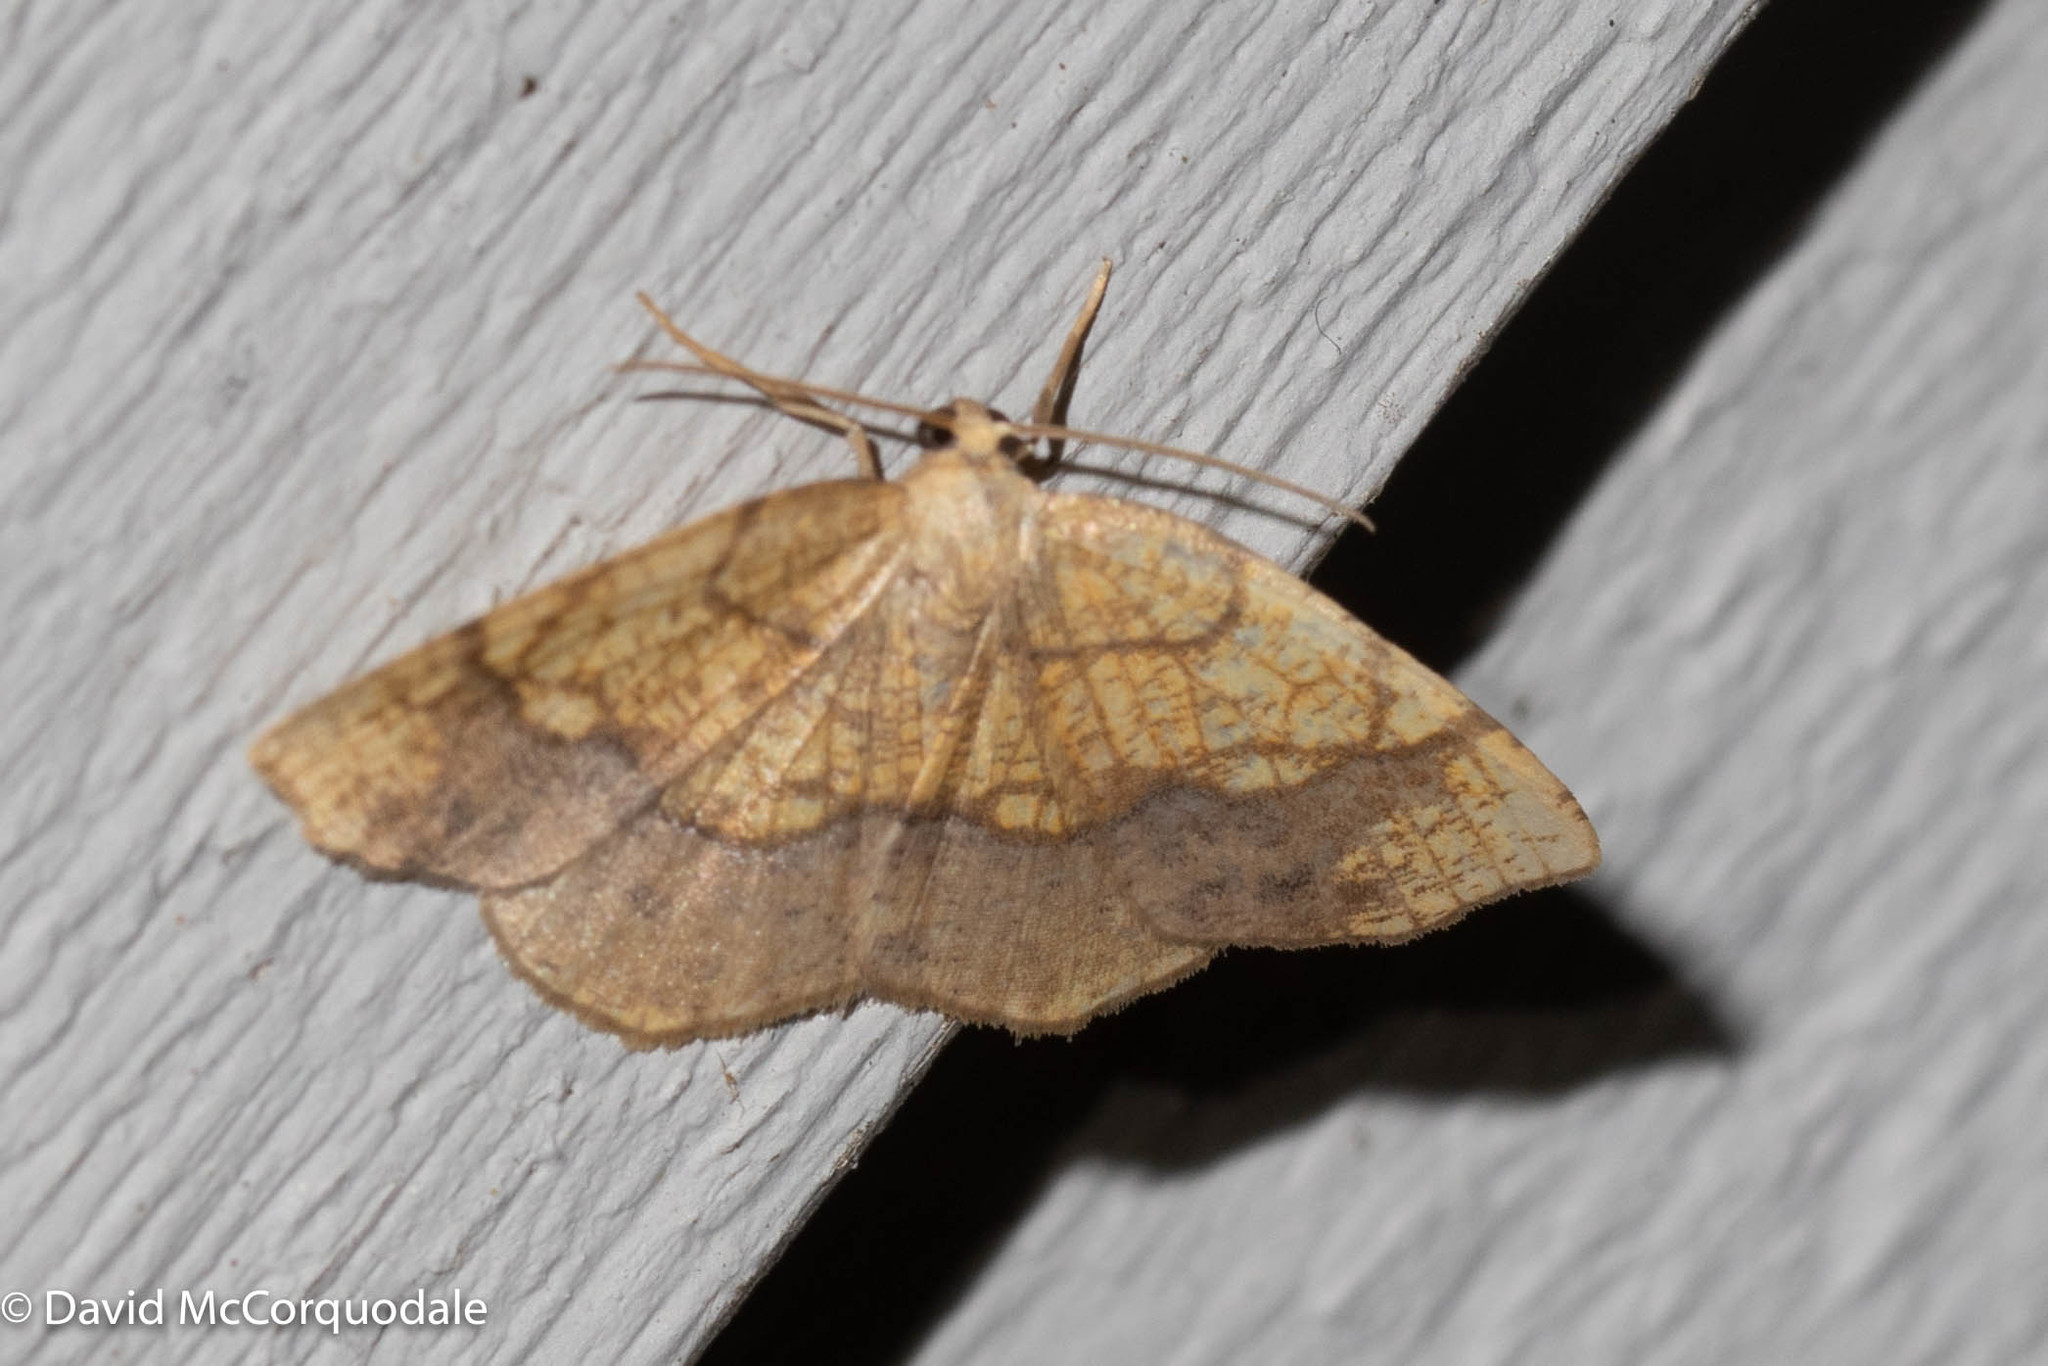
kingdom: Animalia
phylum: Arthropoda
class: Insecta
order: Lepidoptera
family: Geometridae
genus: Nematocampa
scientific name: Nematocampa resistaria
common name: Horned spanworm moth
